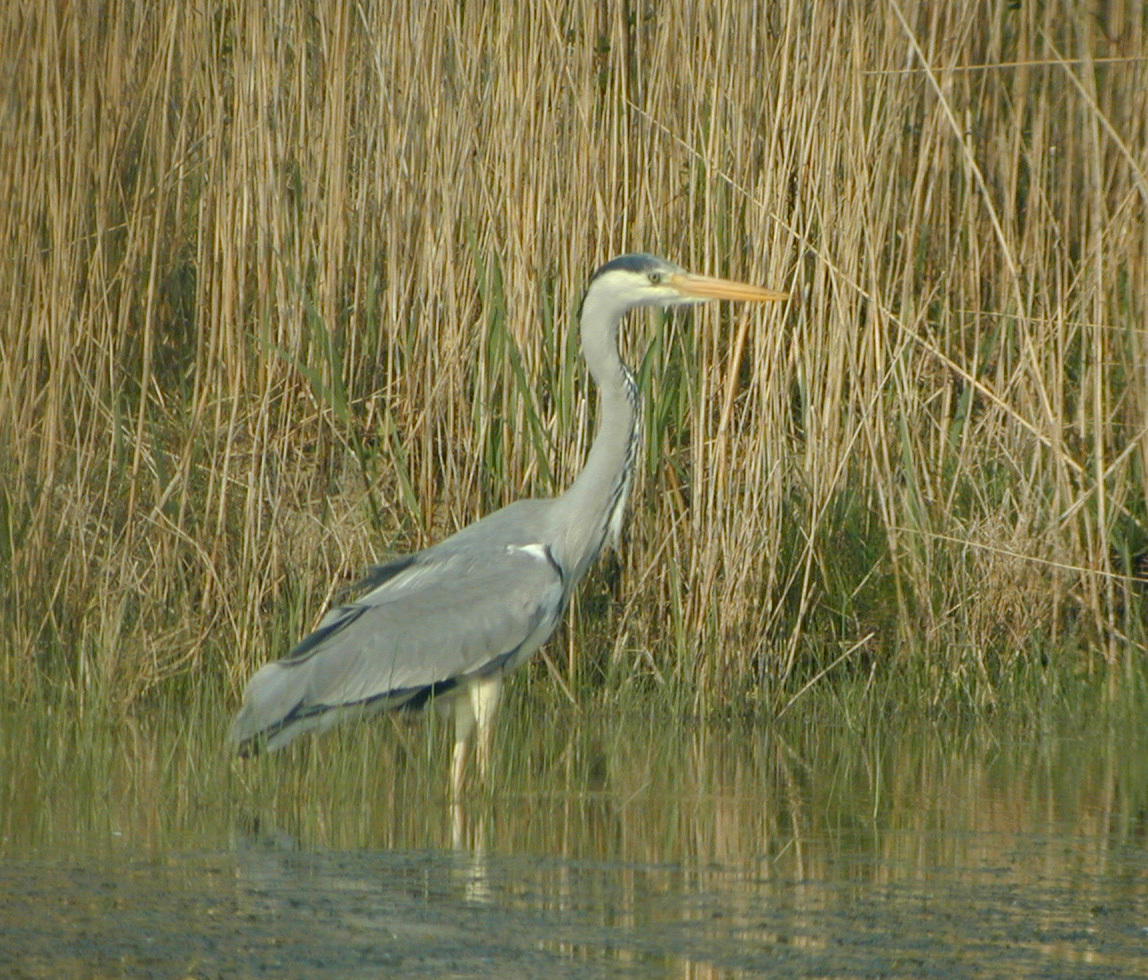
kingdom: Animalia
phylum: Chordata
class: Aves
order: Pelecaniformes
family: Ardeidae
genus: Ardea
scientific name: Ardea cinerea
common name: Grey heron
